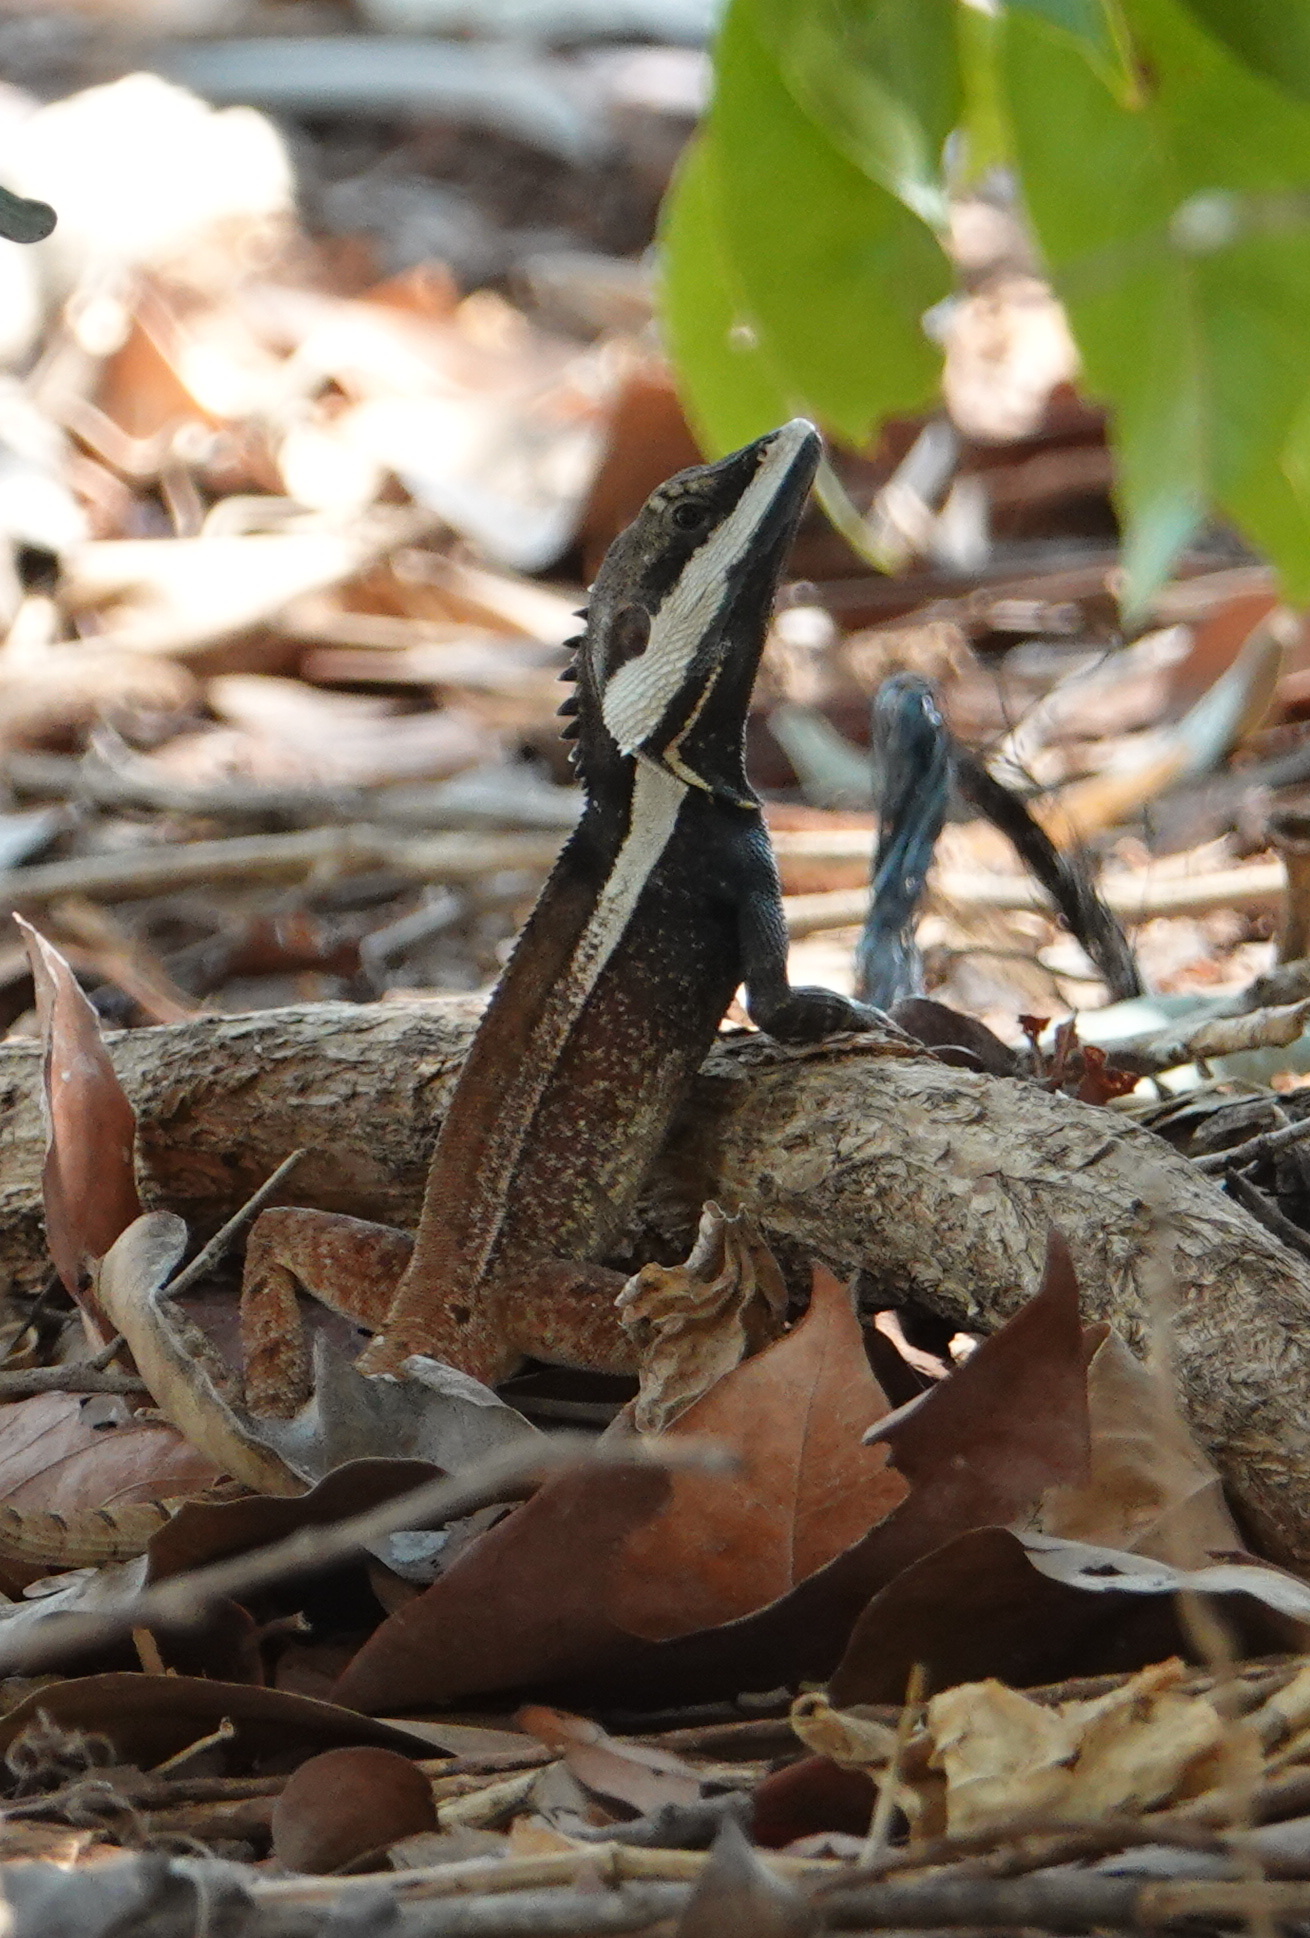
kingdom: Animalia
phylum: Chordata
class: Squamata
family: Agamidae
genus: Tropicagama
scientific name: Tropicagama temporalis
